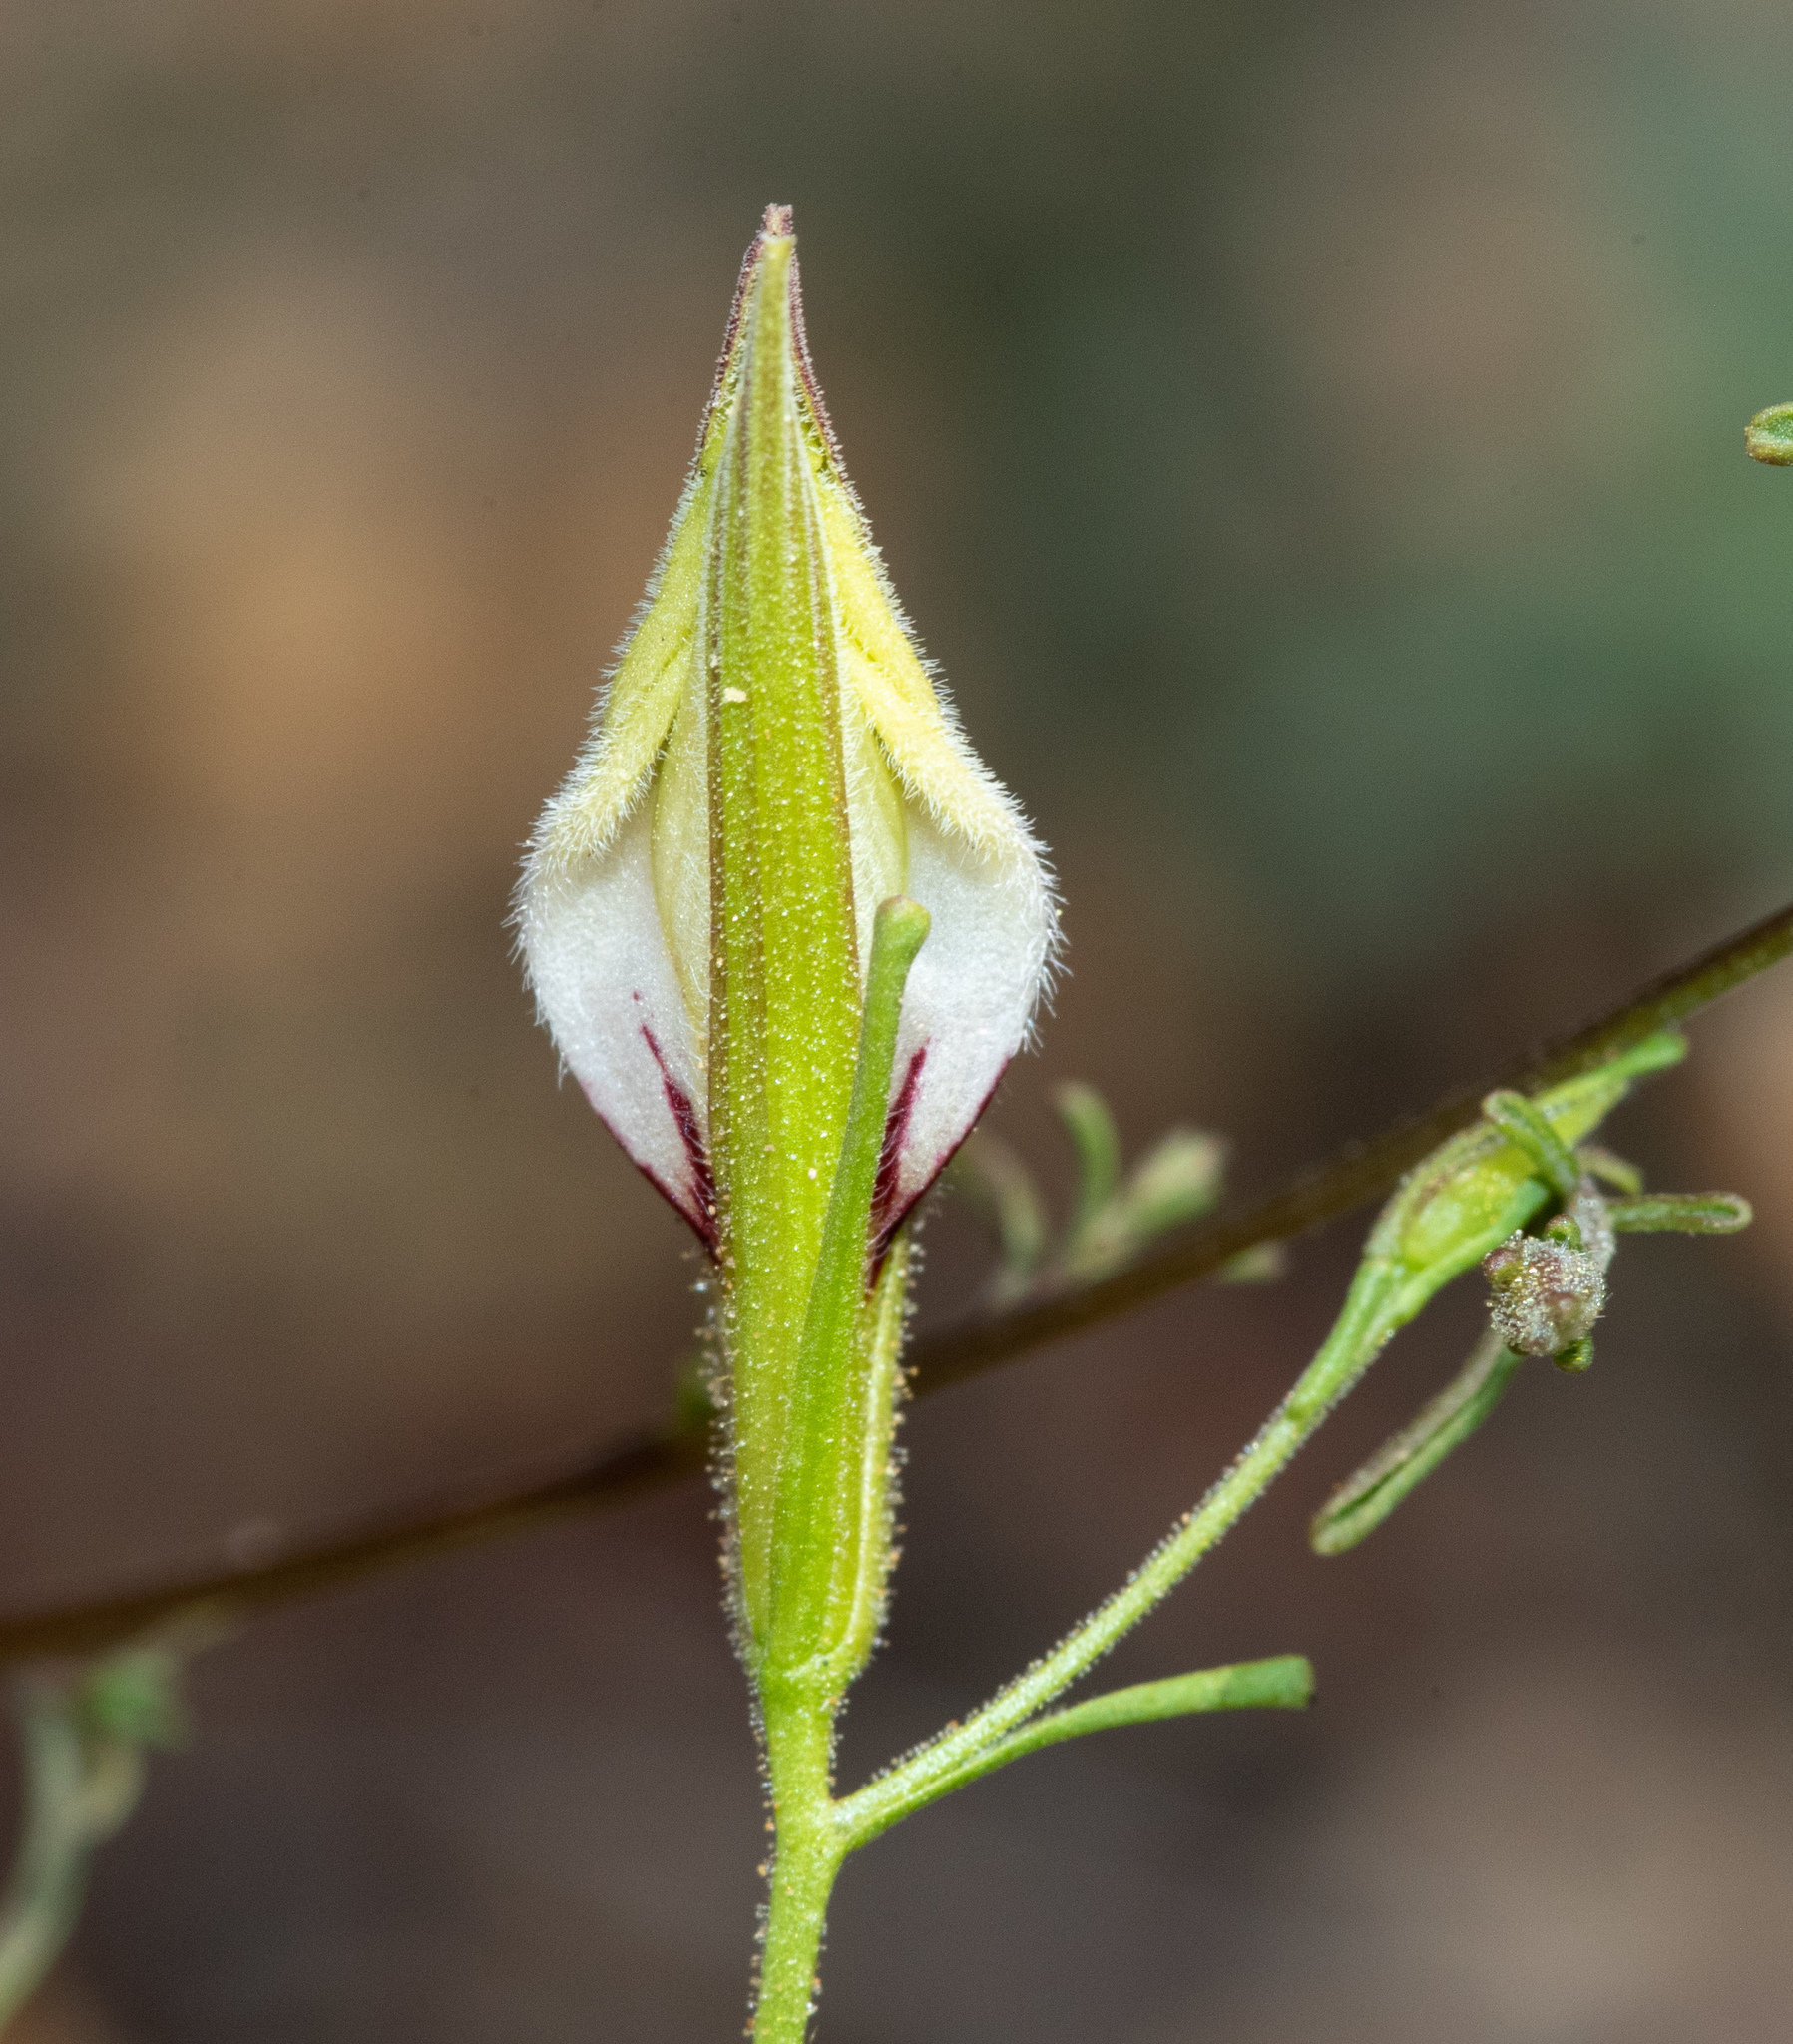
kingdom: Plantae
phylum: Tracheophyta
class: Magnoliopsida
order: Lamiales
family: Orobanchaceae
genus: Cordylanthus
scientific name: Cordylanthus tenuis
